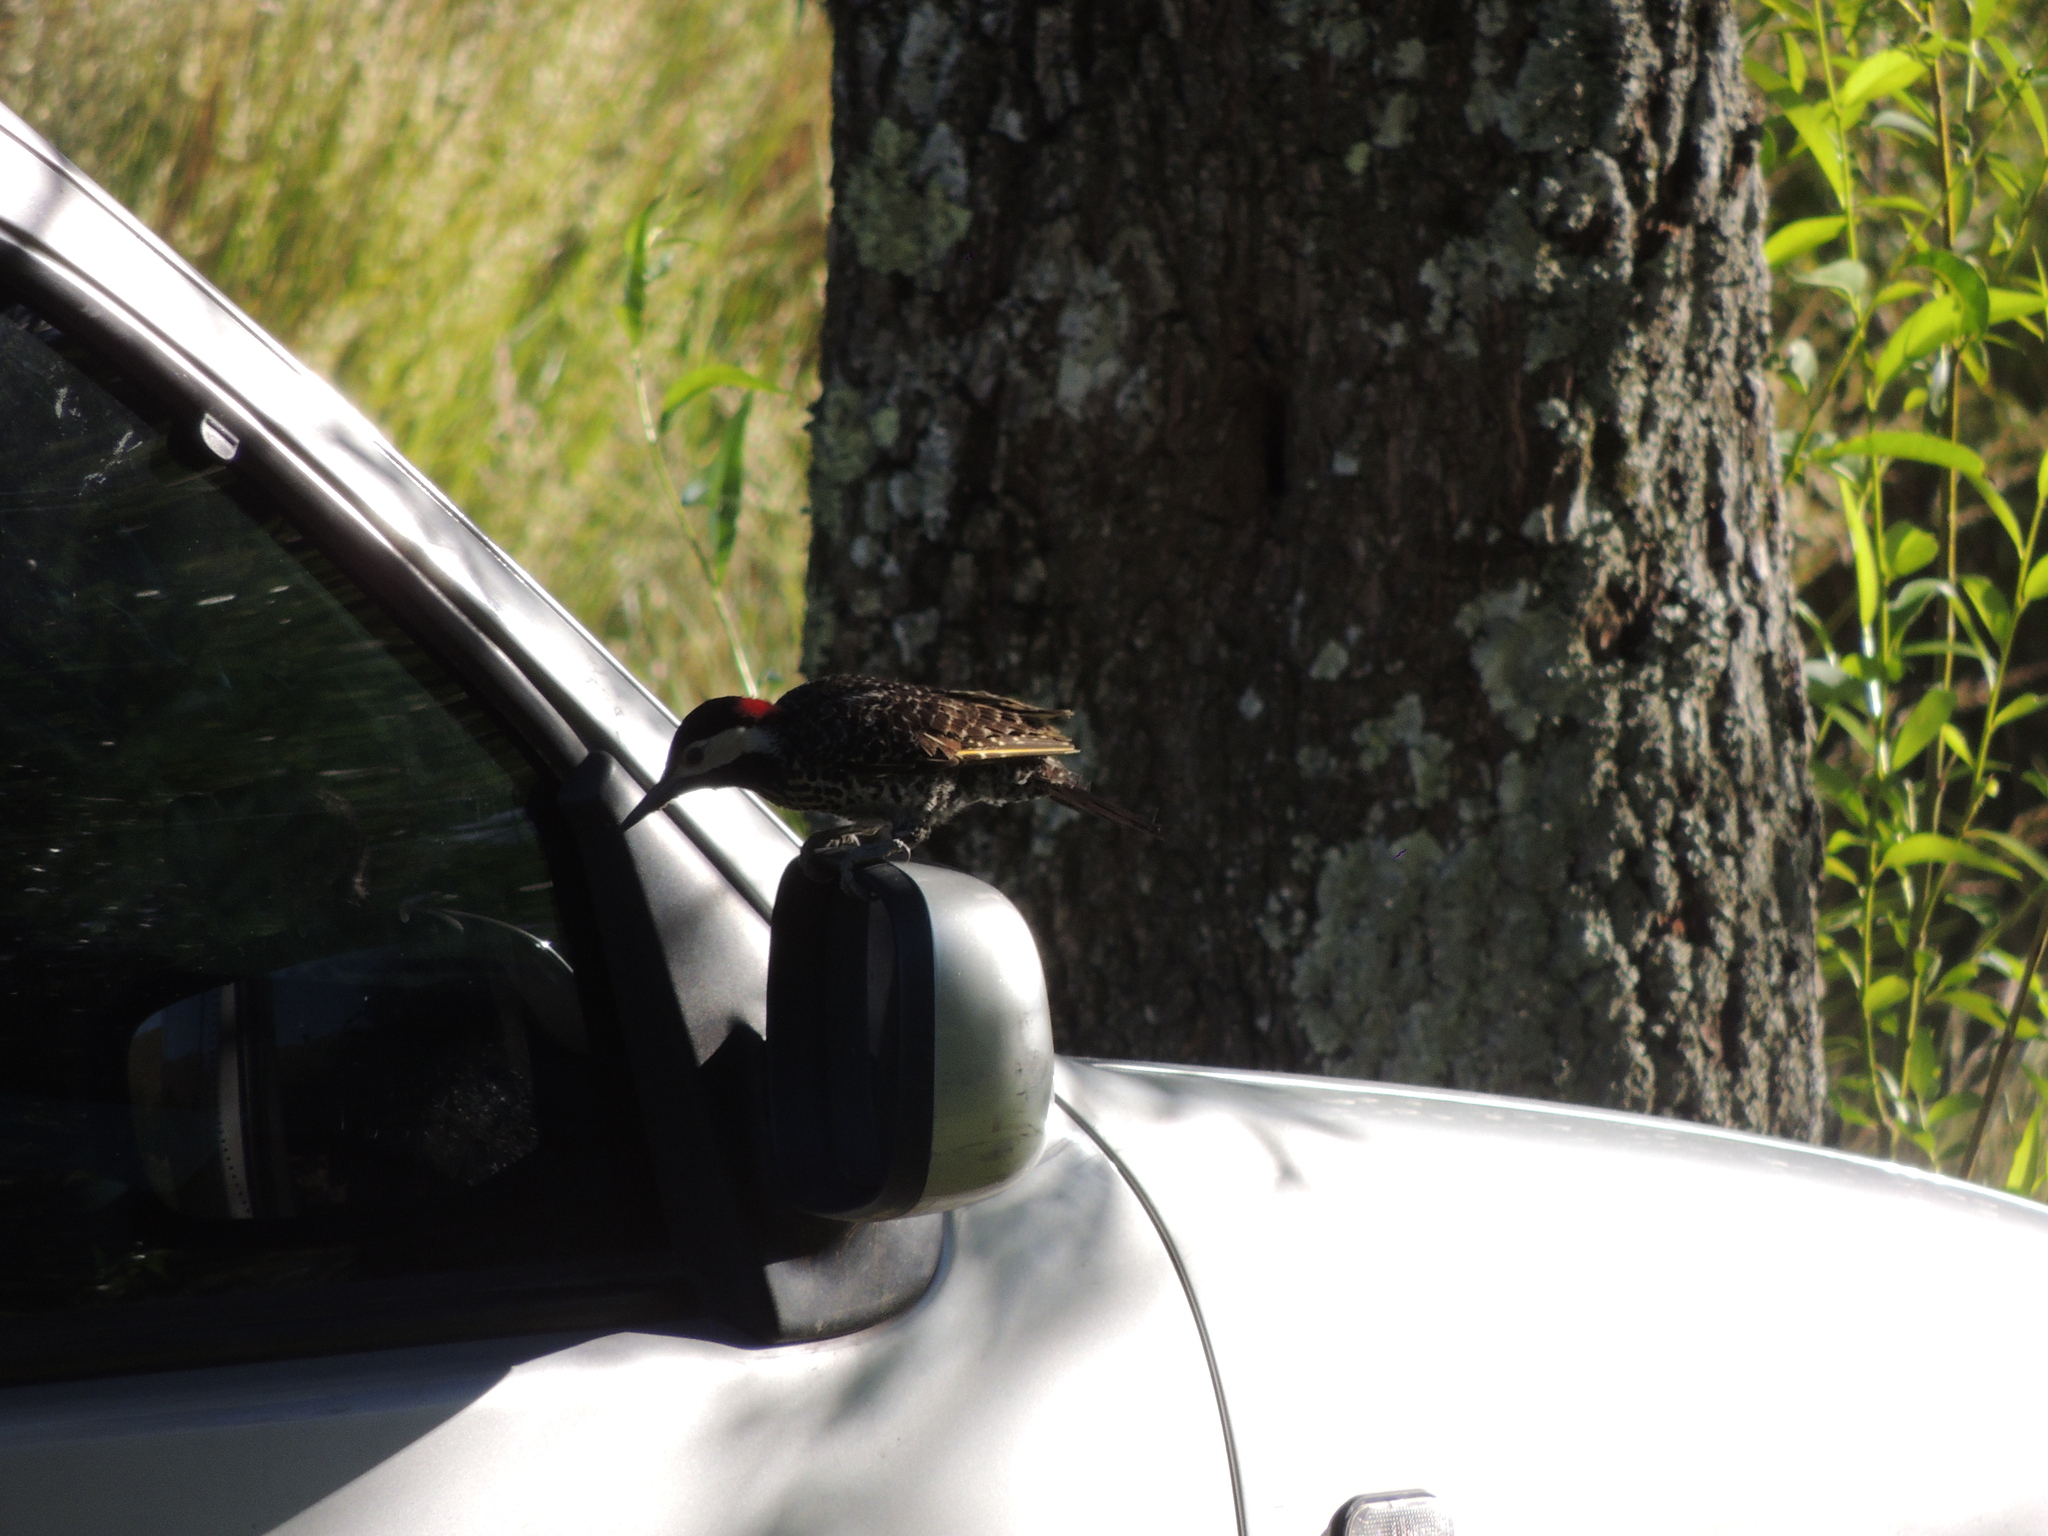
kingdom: Animalia
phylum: Chordata
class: Aves
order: Piciformes
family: Picidae
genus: Colaptes
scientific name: Colaptes melanochloros
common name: Green-barred woodpecker
